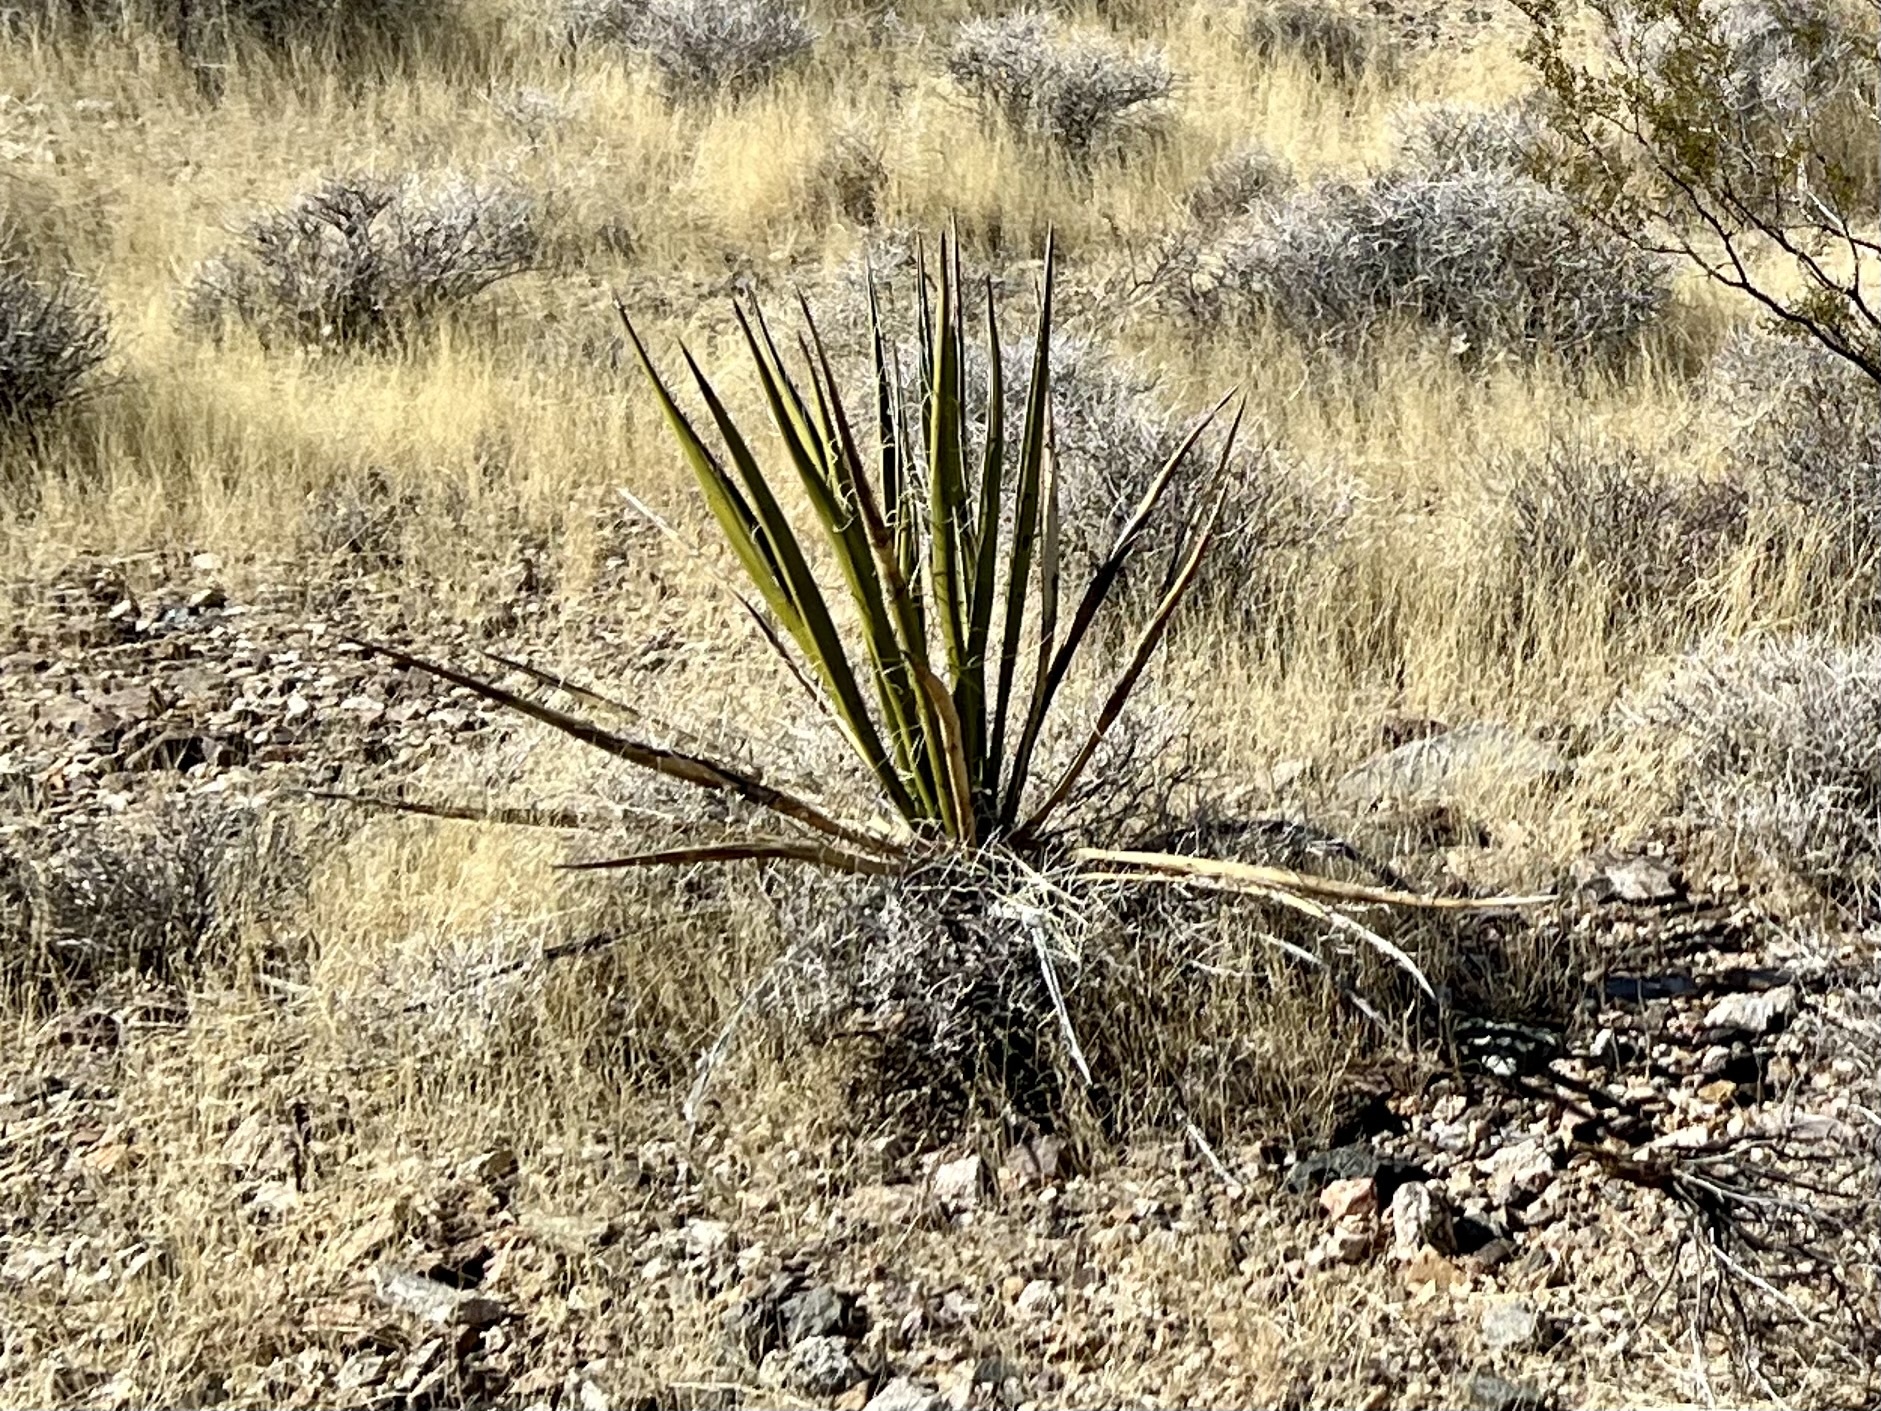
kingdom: Plantae
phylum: Tracheophyta
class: Liliopsida
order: Asparagales
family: Asparagaceae
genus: Yucca
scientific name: Yucca schidigera
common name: Mojave yucca
